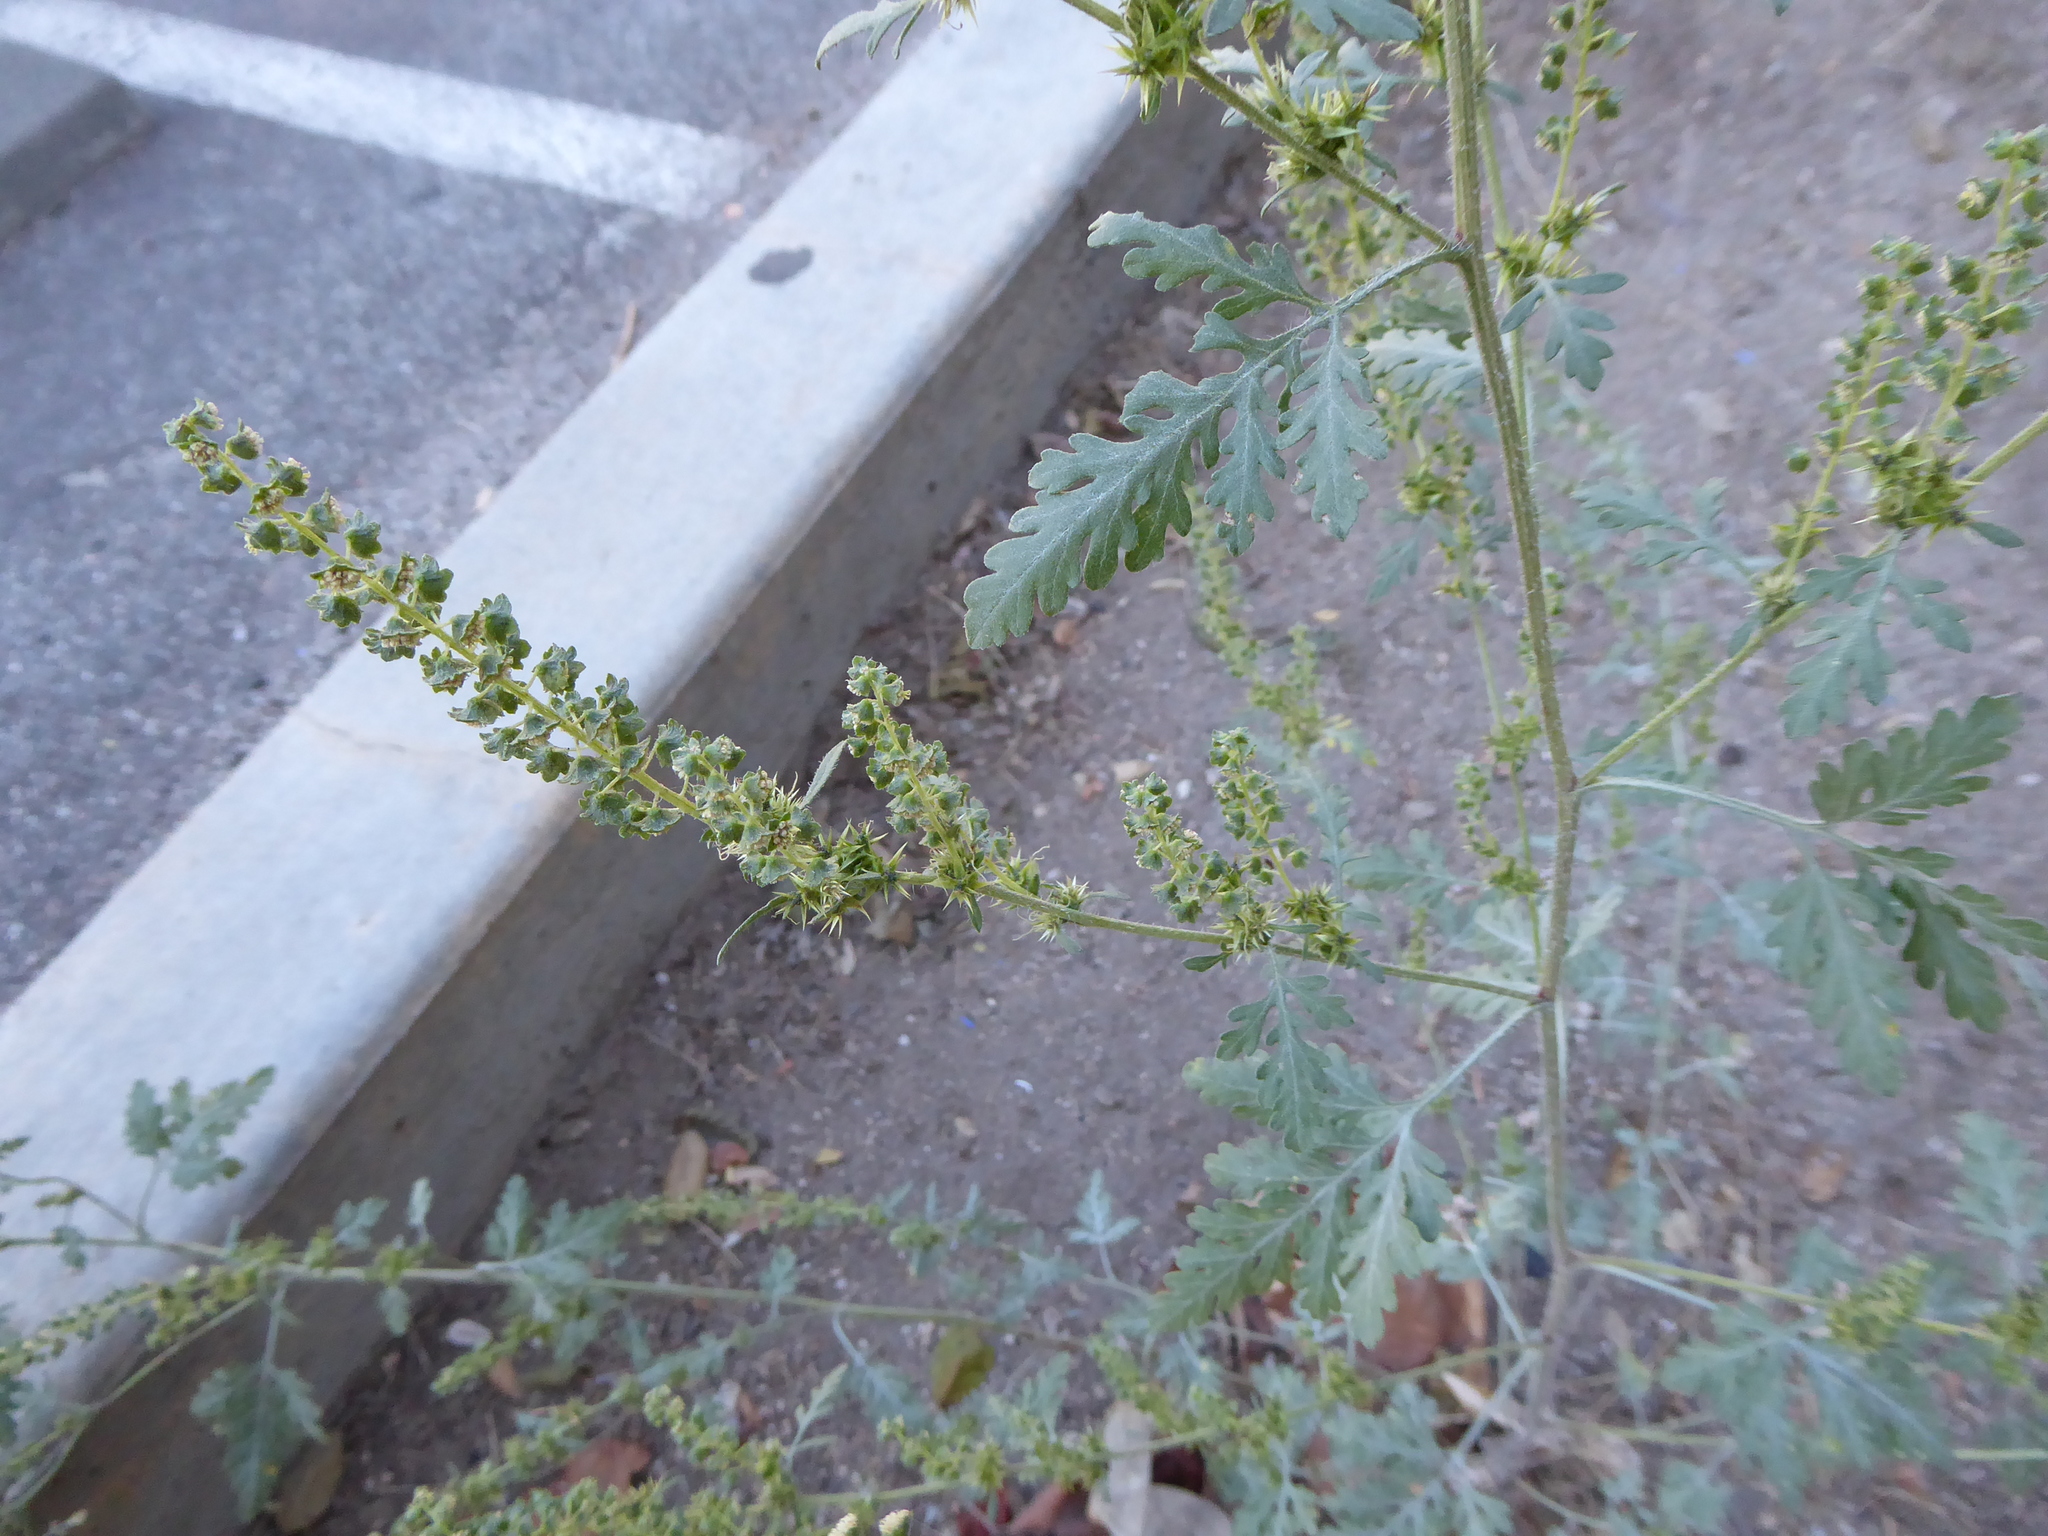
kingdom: Plantae
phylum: Tracheophyta
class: Magnoliopsida
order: Asterales
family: Asteraceae
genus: Ambrosia
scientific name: Ambrosia acanthicarpa
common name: Hooker's bur ragweed
